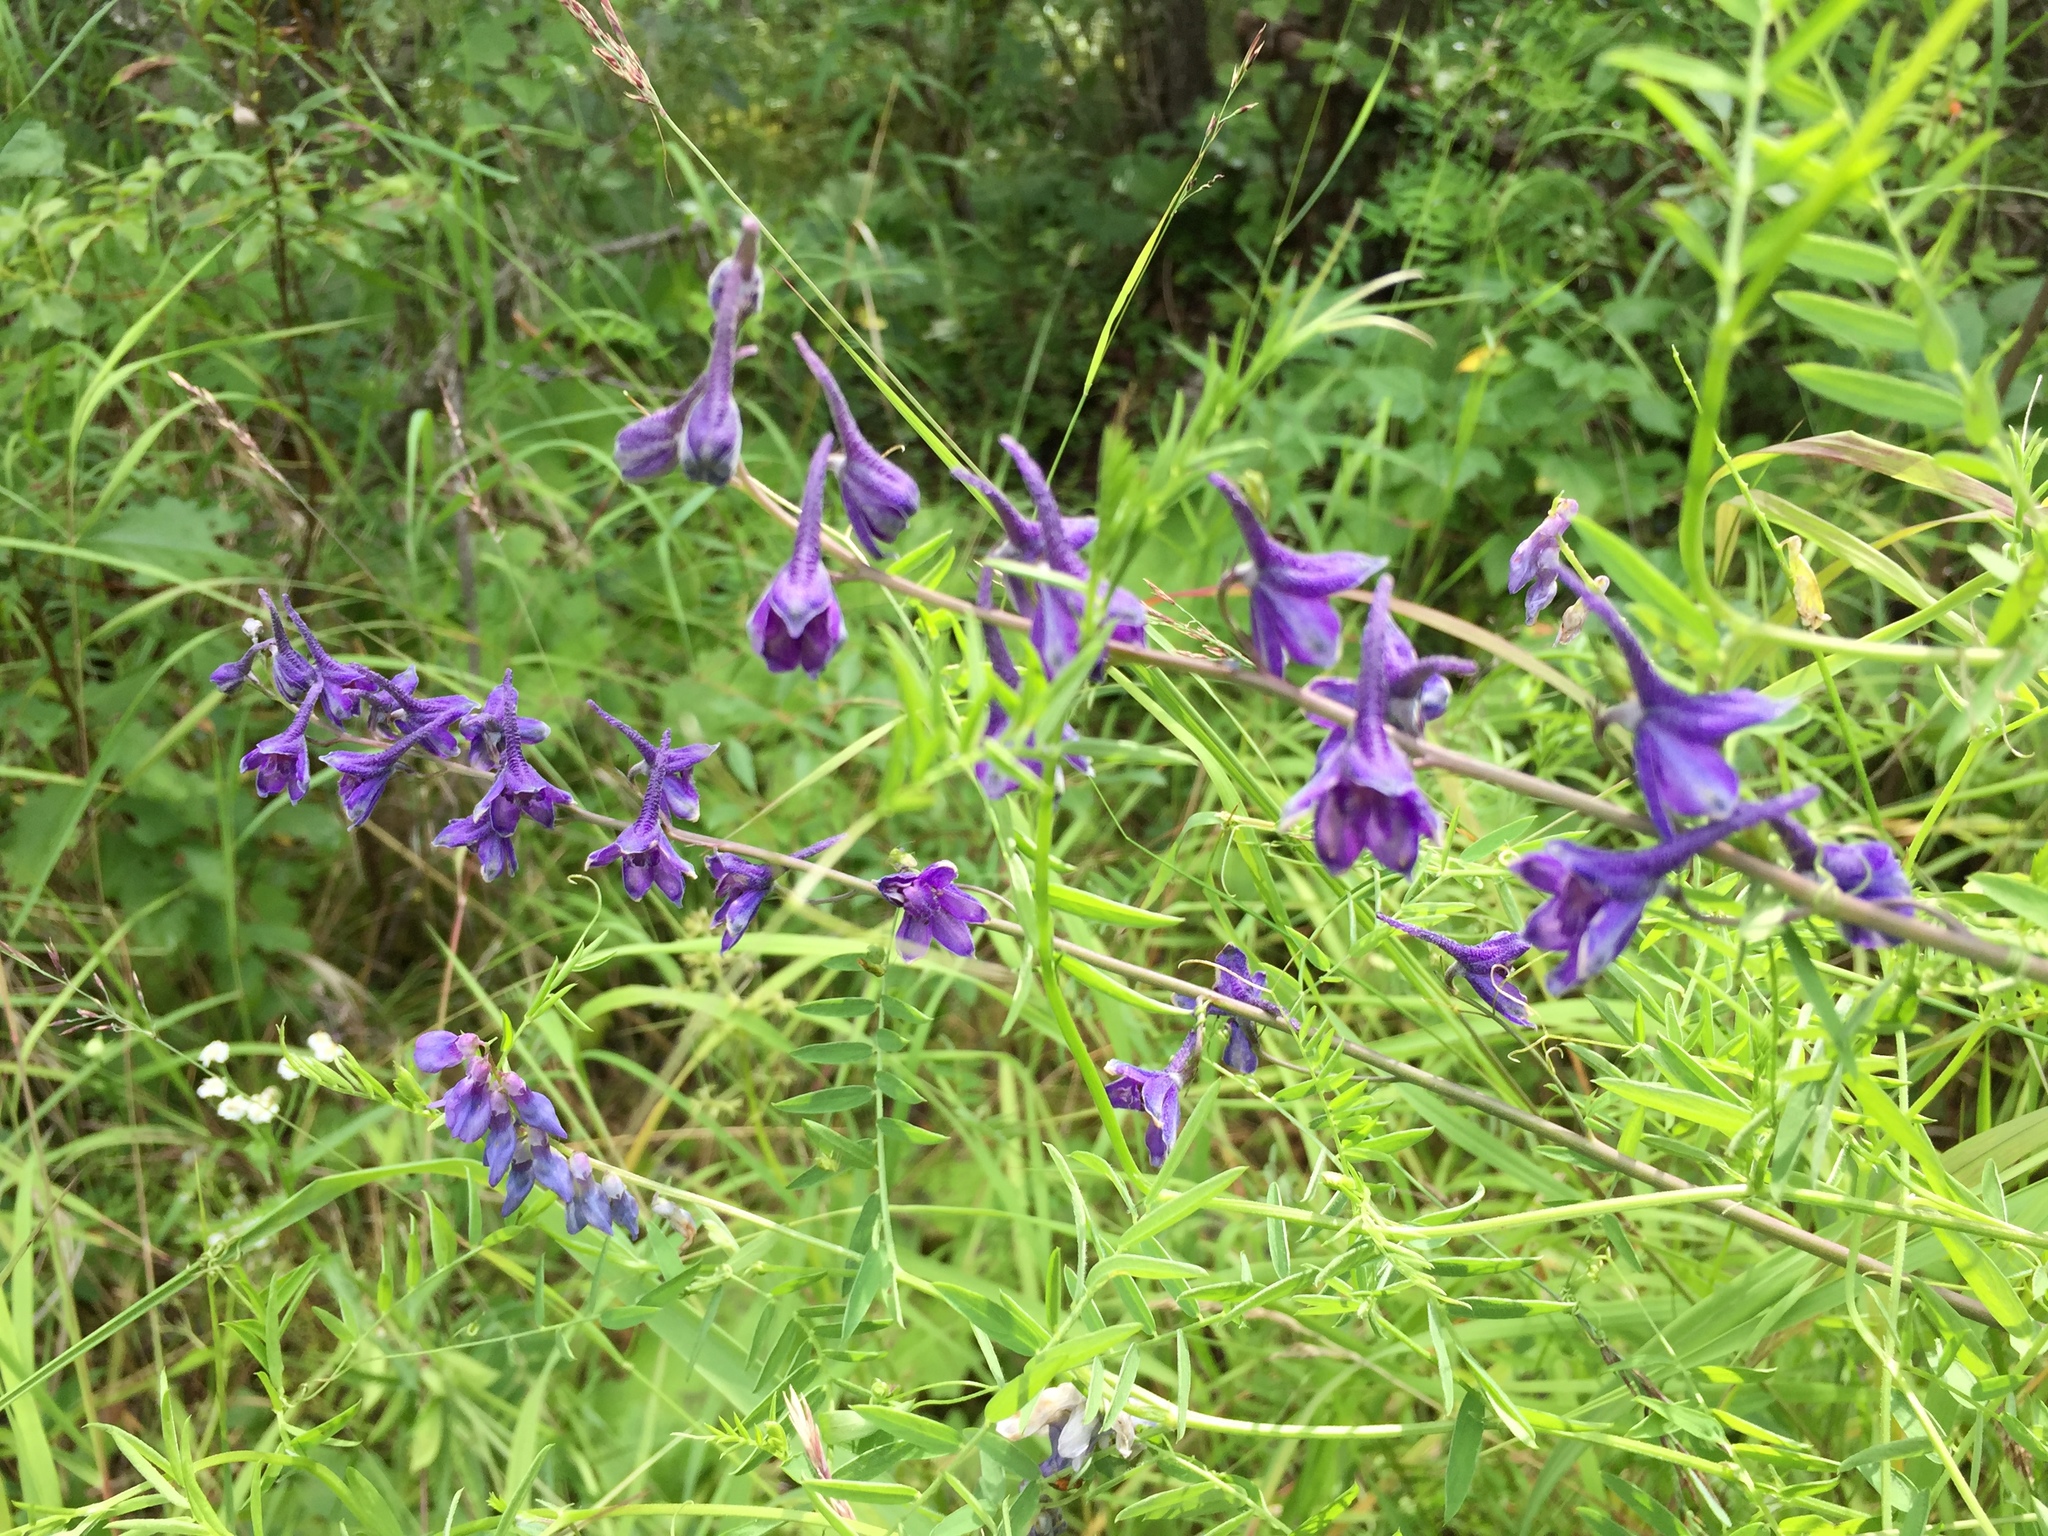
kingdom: Plantae
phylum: Tracheophyta
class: Magnoliopsida
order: Ranunculales
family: Ranunculaceae
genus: Delphinium
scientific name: Delphinium glaucum
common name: Brown's larkspur
